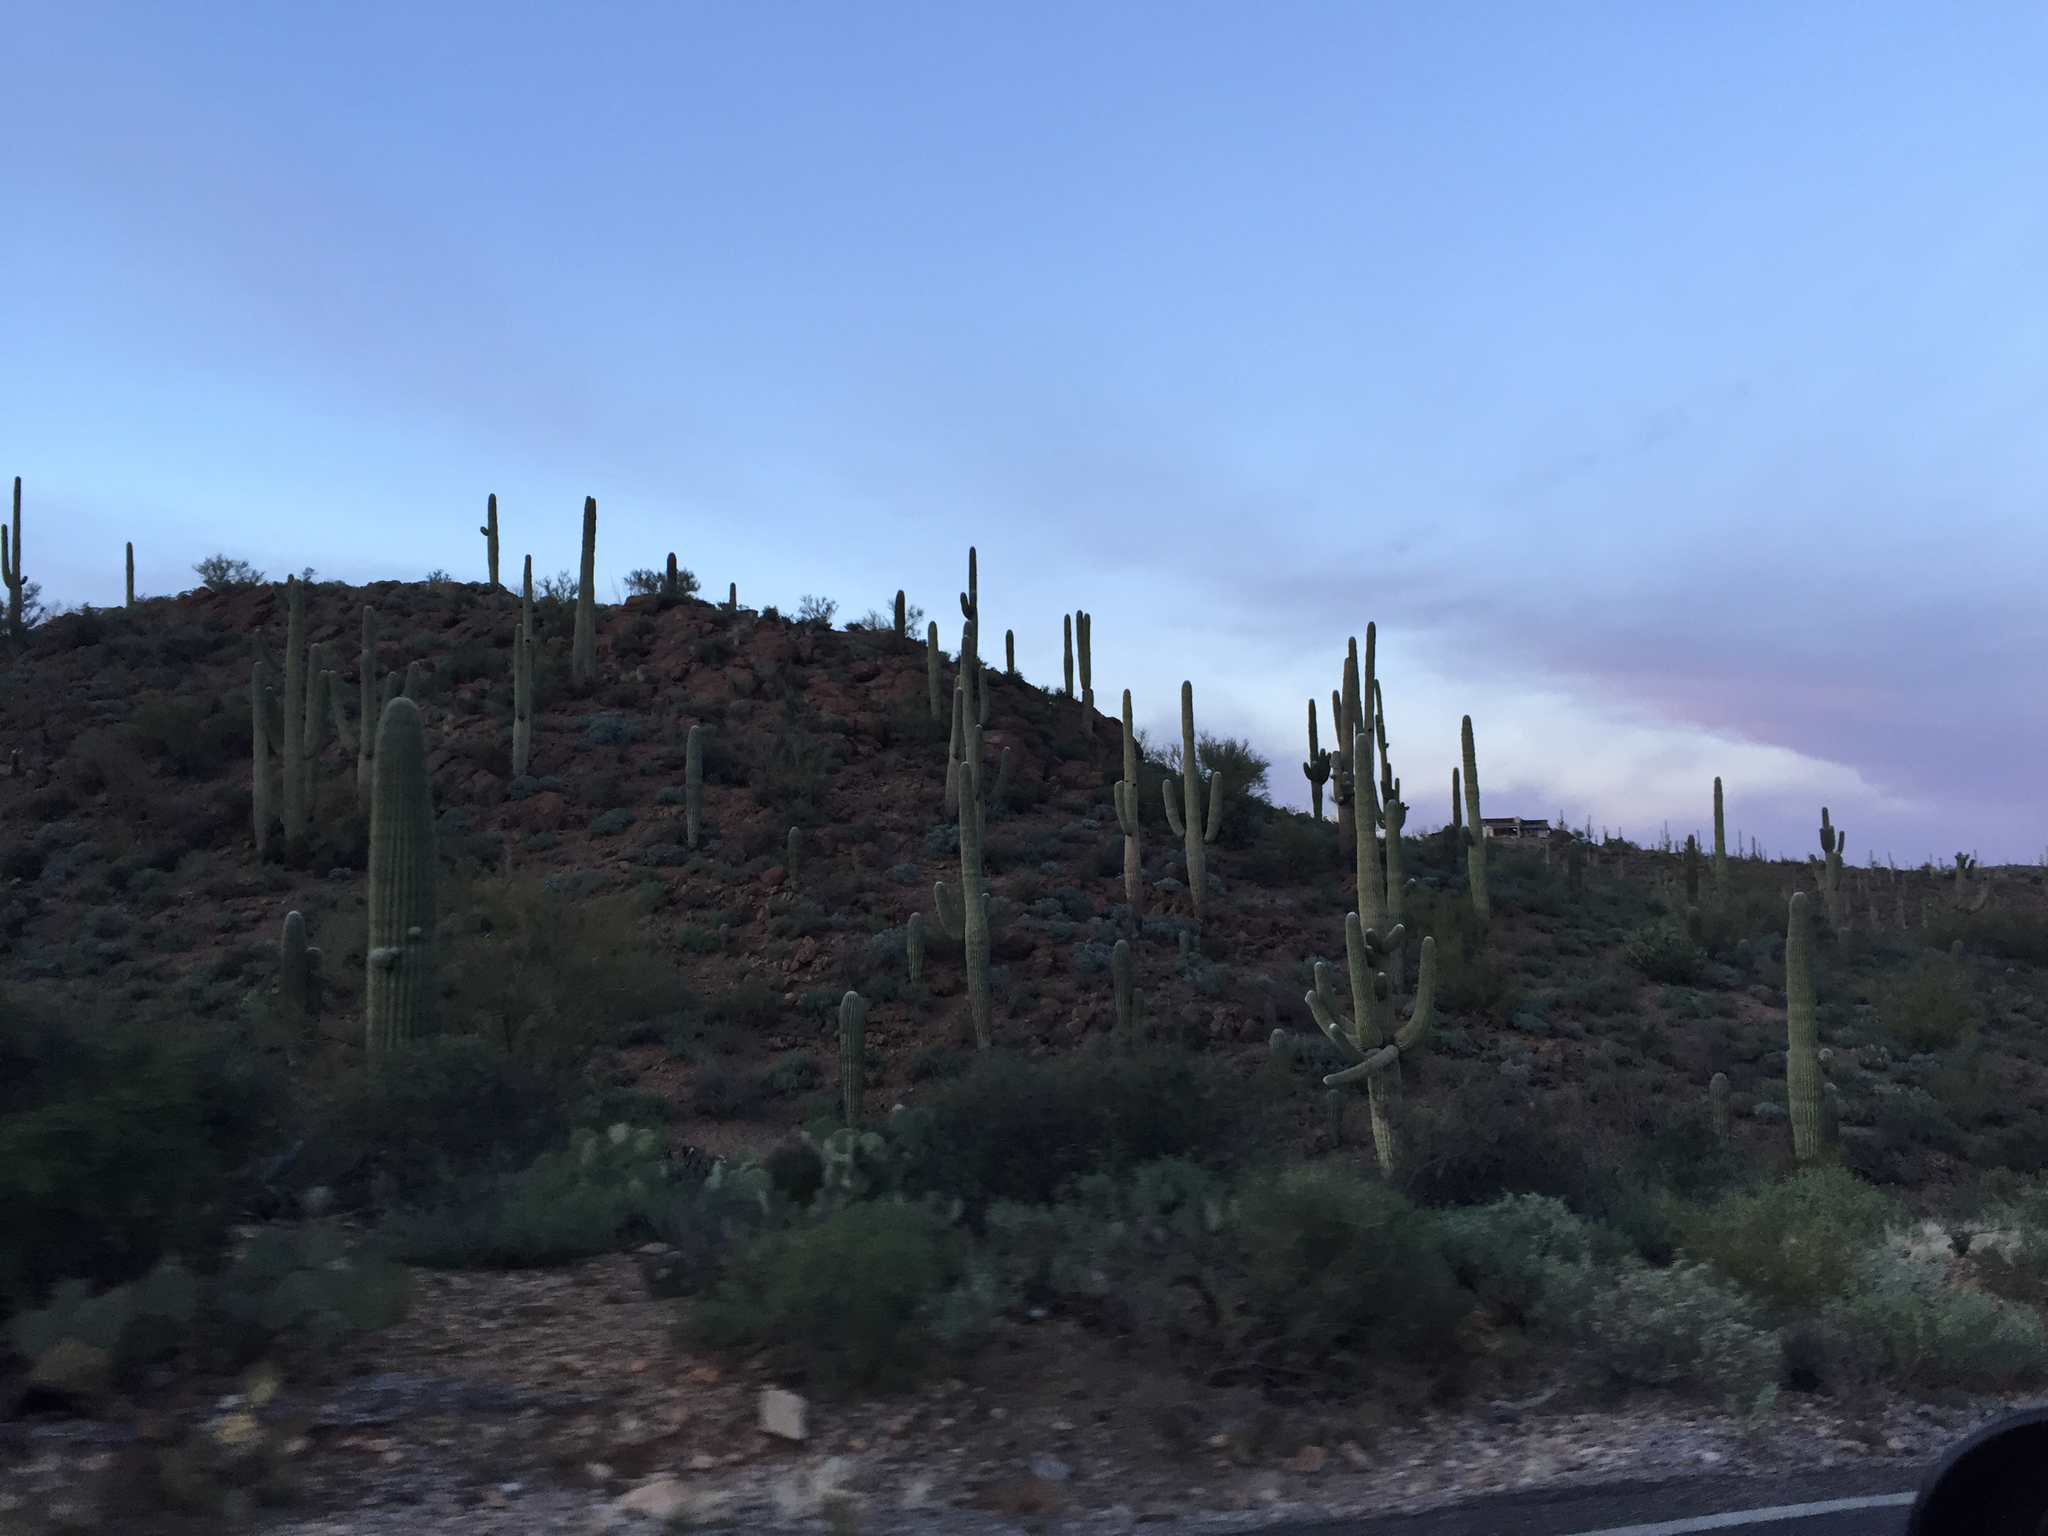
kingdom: Plantae
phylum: Tracheophyta
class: Magnoliopsida
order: Caryophyllales
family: Cactaceae
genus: Carnegiea
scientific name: Carnegiea gigantea
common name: Saguaro
